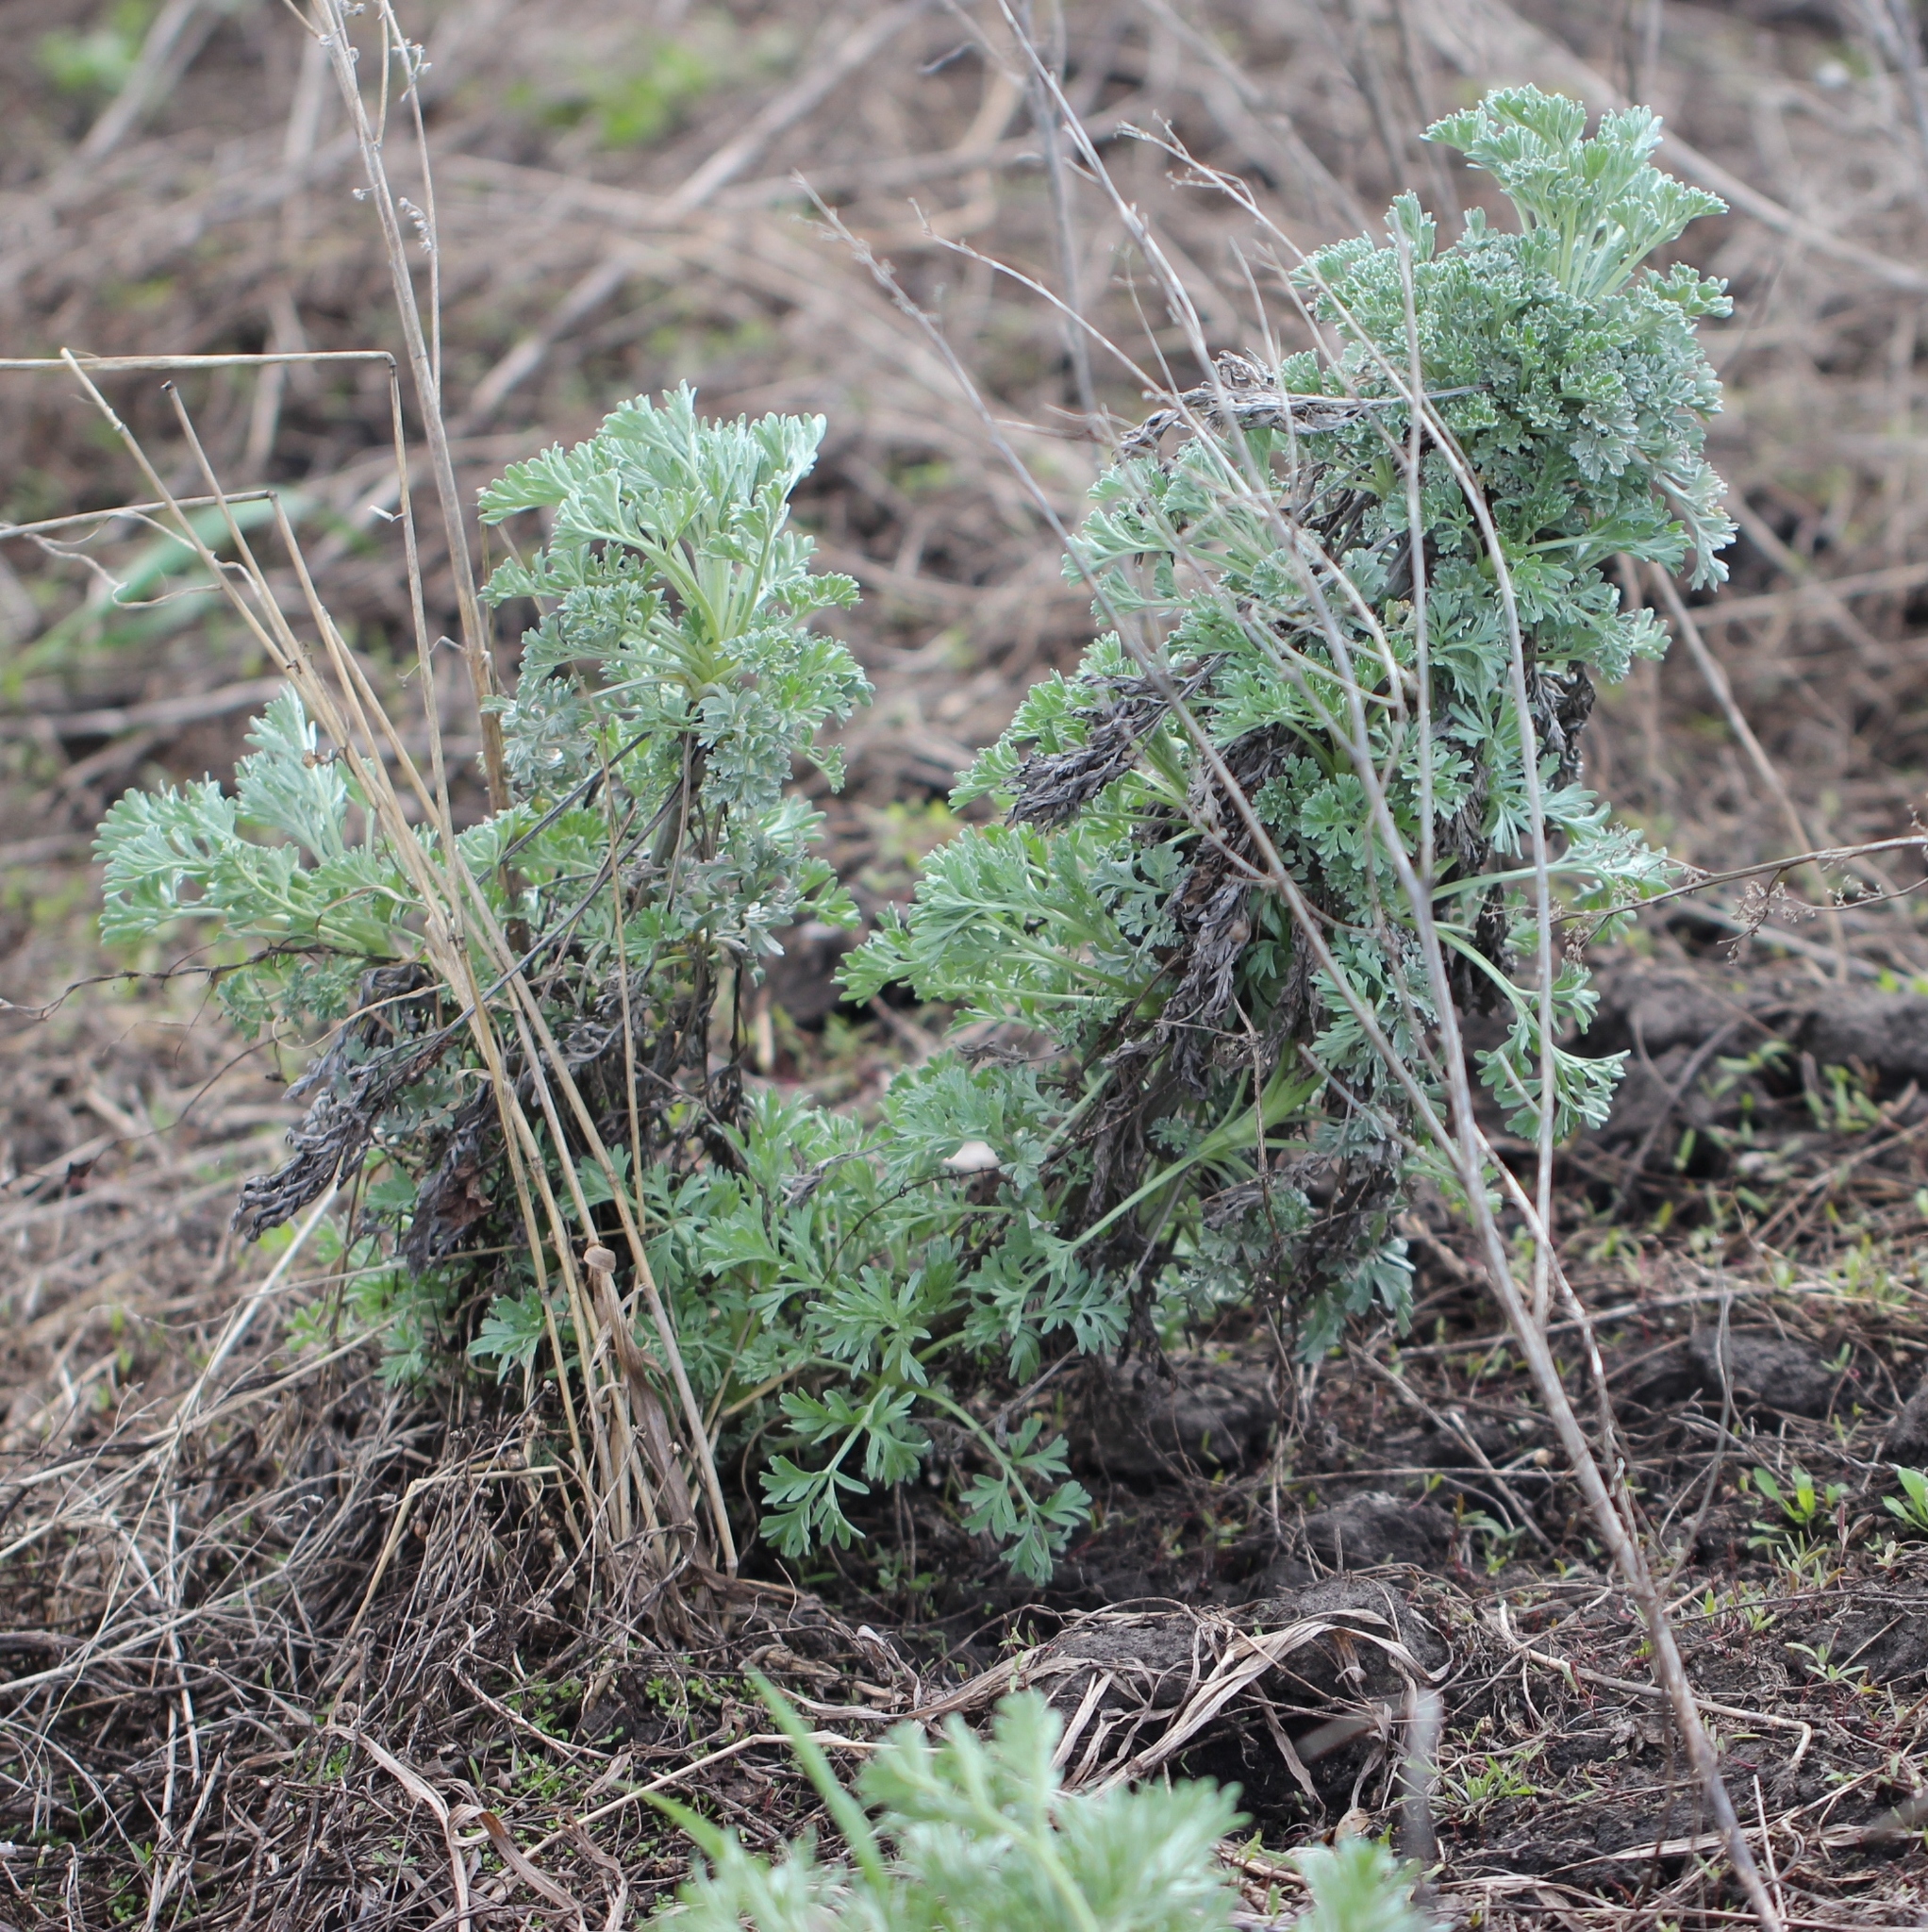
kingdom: Plantae
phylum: Tracheophyta
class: Magnoliopsida
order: Asterales
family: Asteraceae
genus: Artemisia
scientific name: Artemisia absinthium
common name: Wormwood
